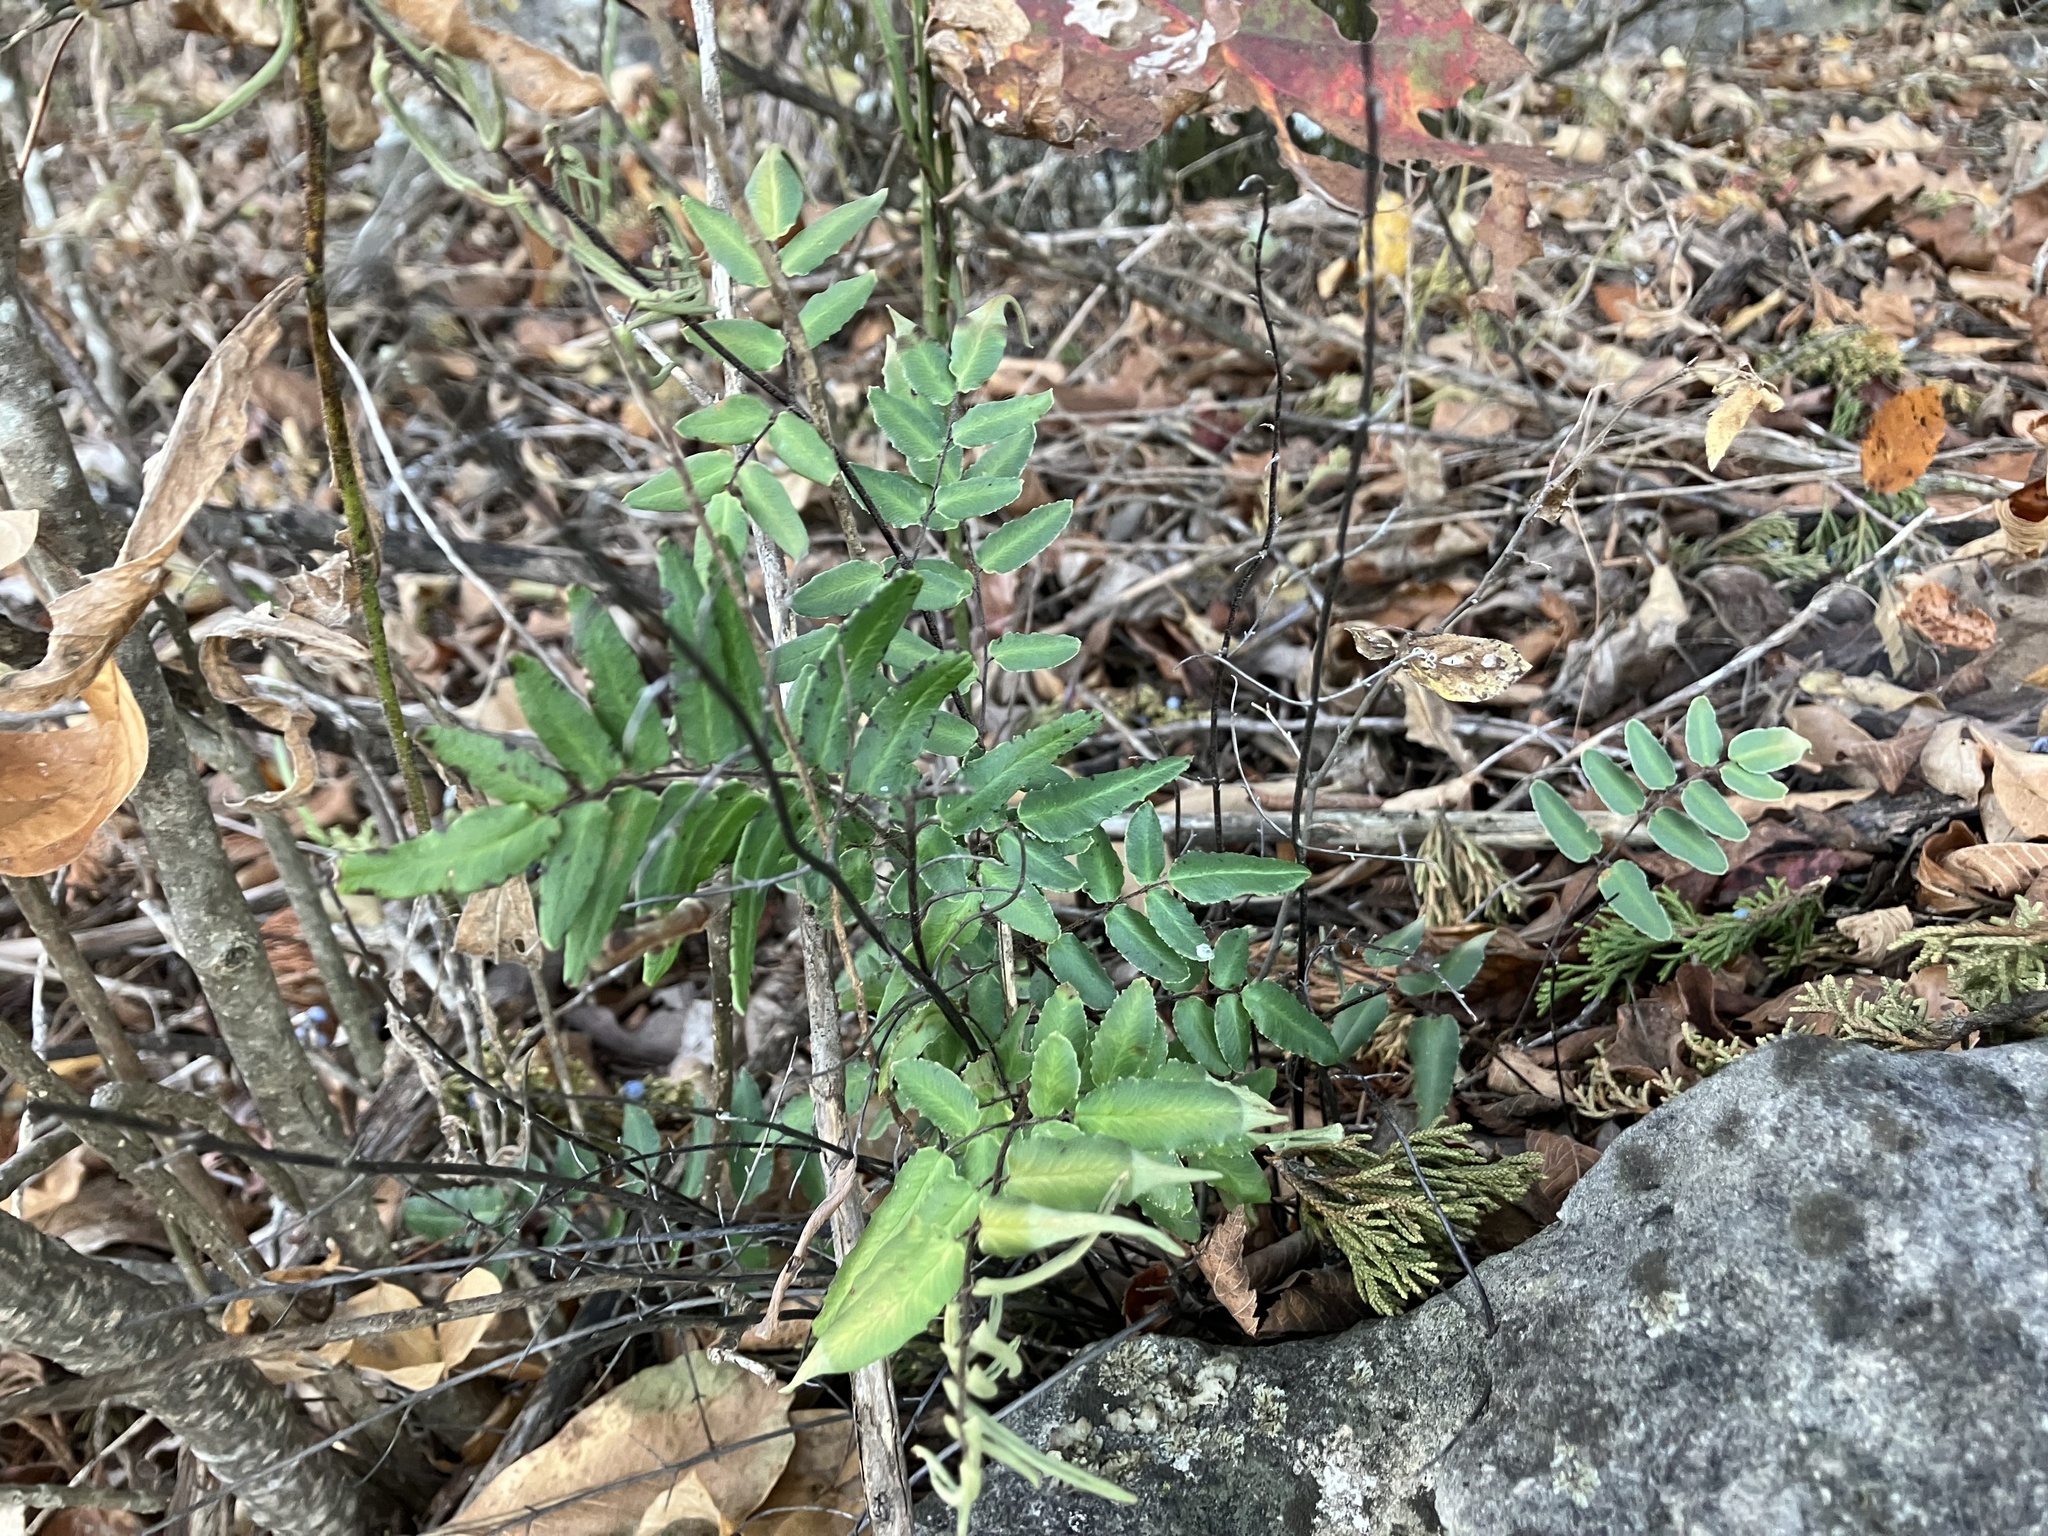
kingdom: Plantae
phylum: Tracheophyta
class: Polypodiopsida
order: Polypodiales
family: Pteridaceae
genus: Pellaea
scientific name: Pellaea atropurpurea
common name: Hairy cliffbrake
